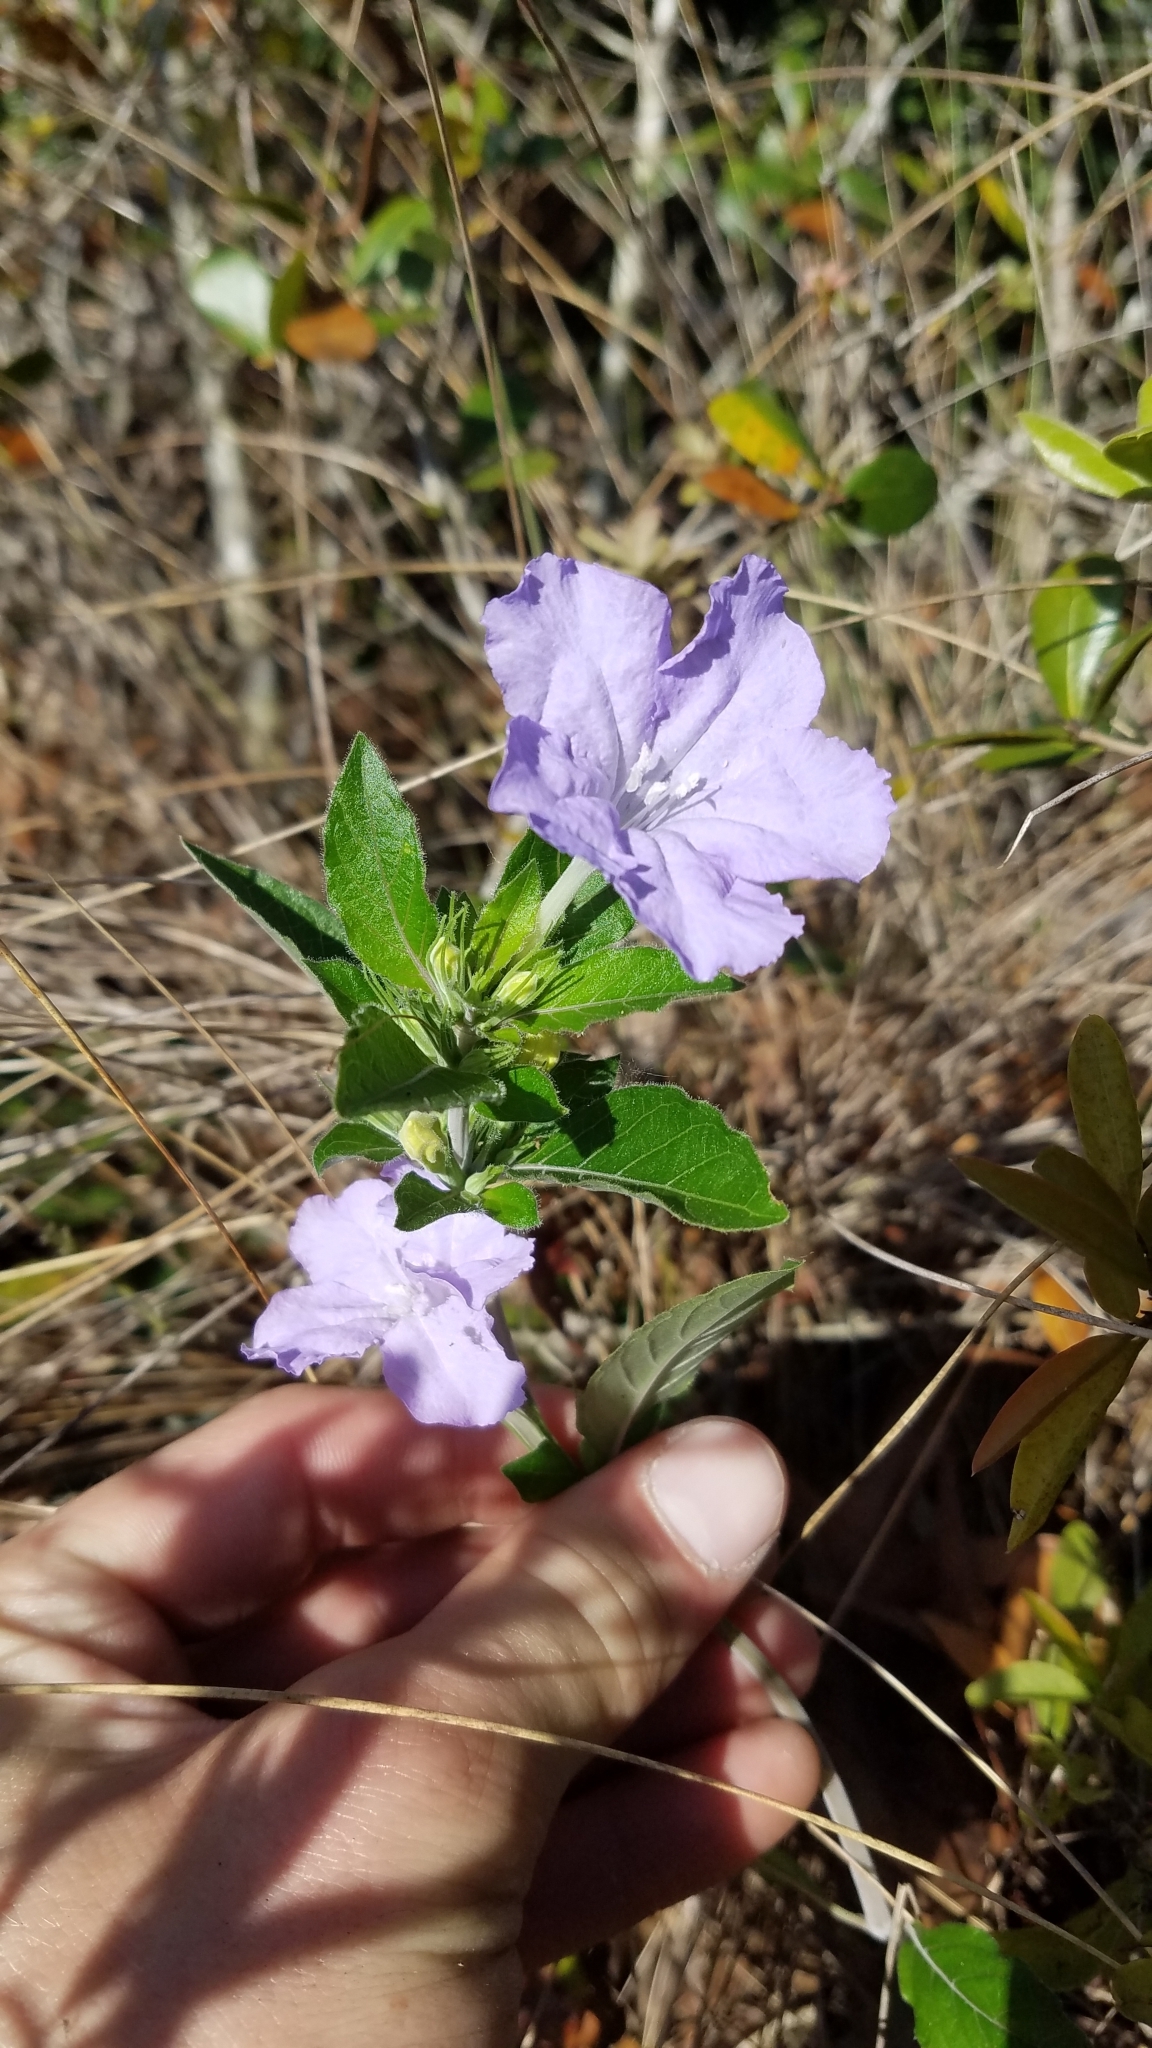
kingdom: Plantae
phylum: Tracheophyta
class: Magnoliopsida
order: Lamiales
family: Acanthaceae
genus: Ruellia
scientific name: Ruellia caroliniensis
